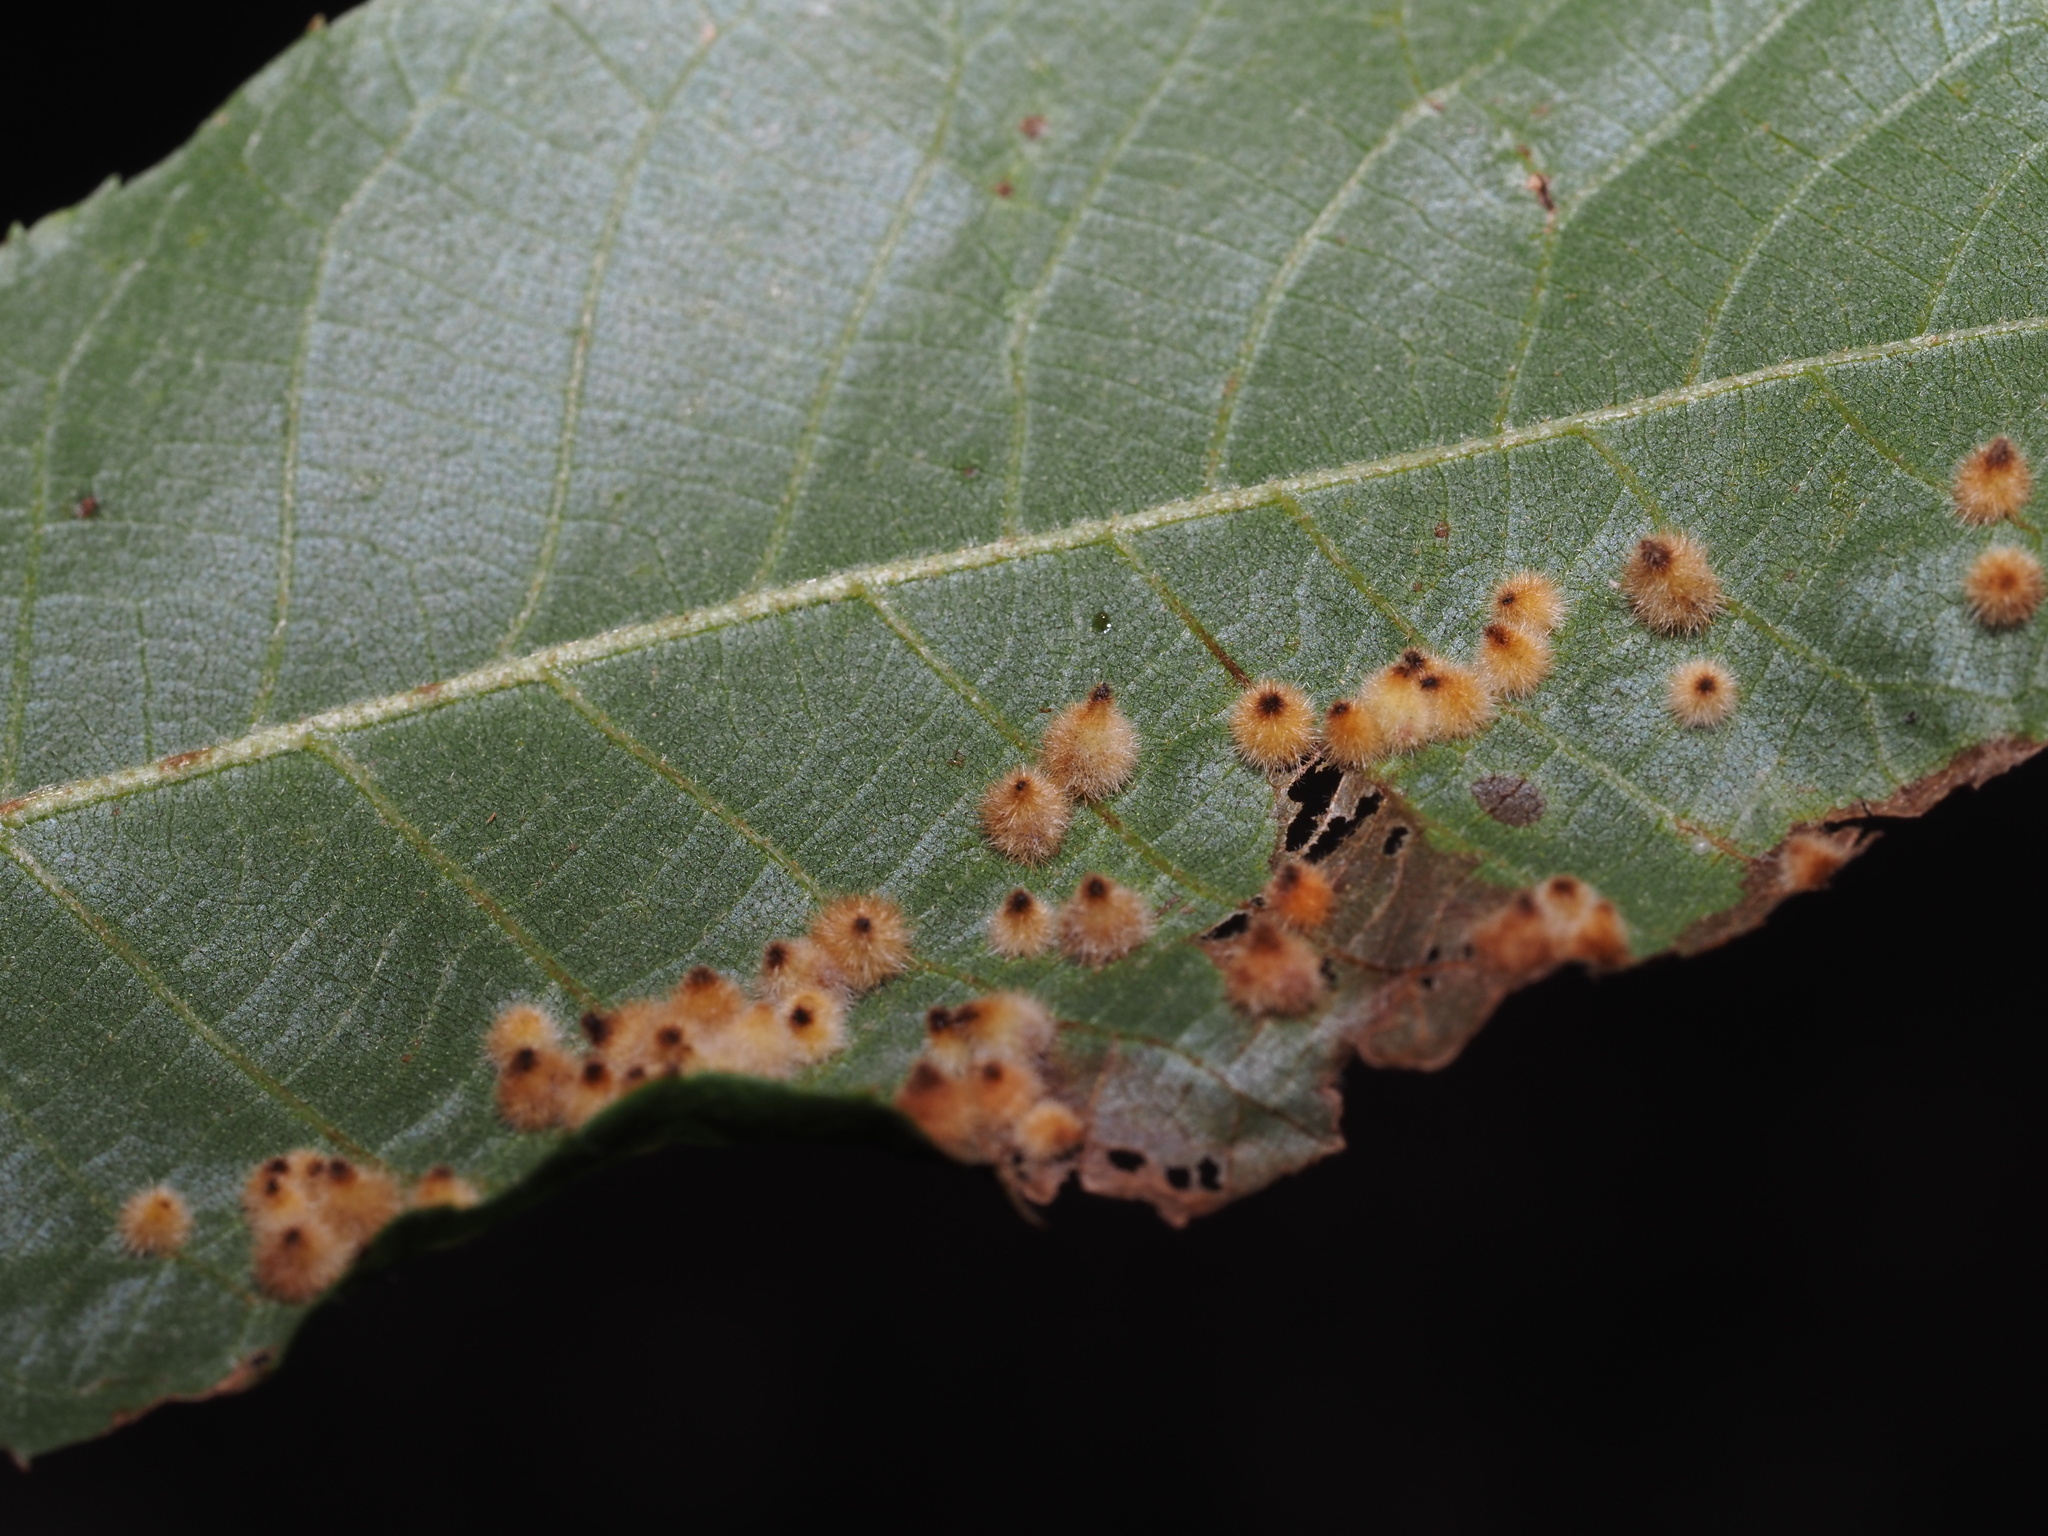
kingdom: Animalia
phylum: Arthropoda
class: Insecta
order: Diptera
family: Cecidomyiidae
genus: Caryomyia
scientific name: Caryomyia purpurea
